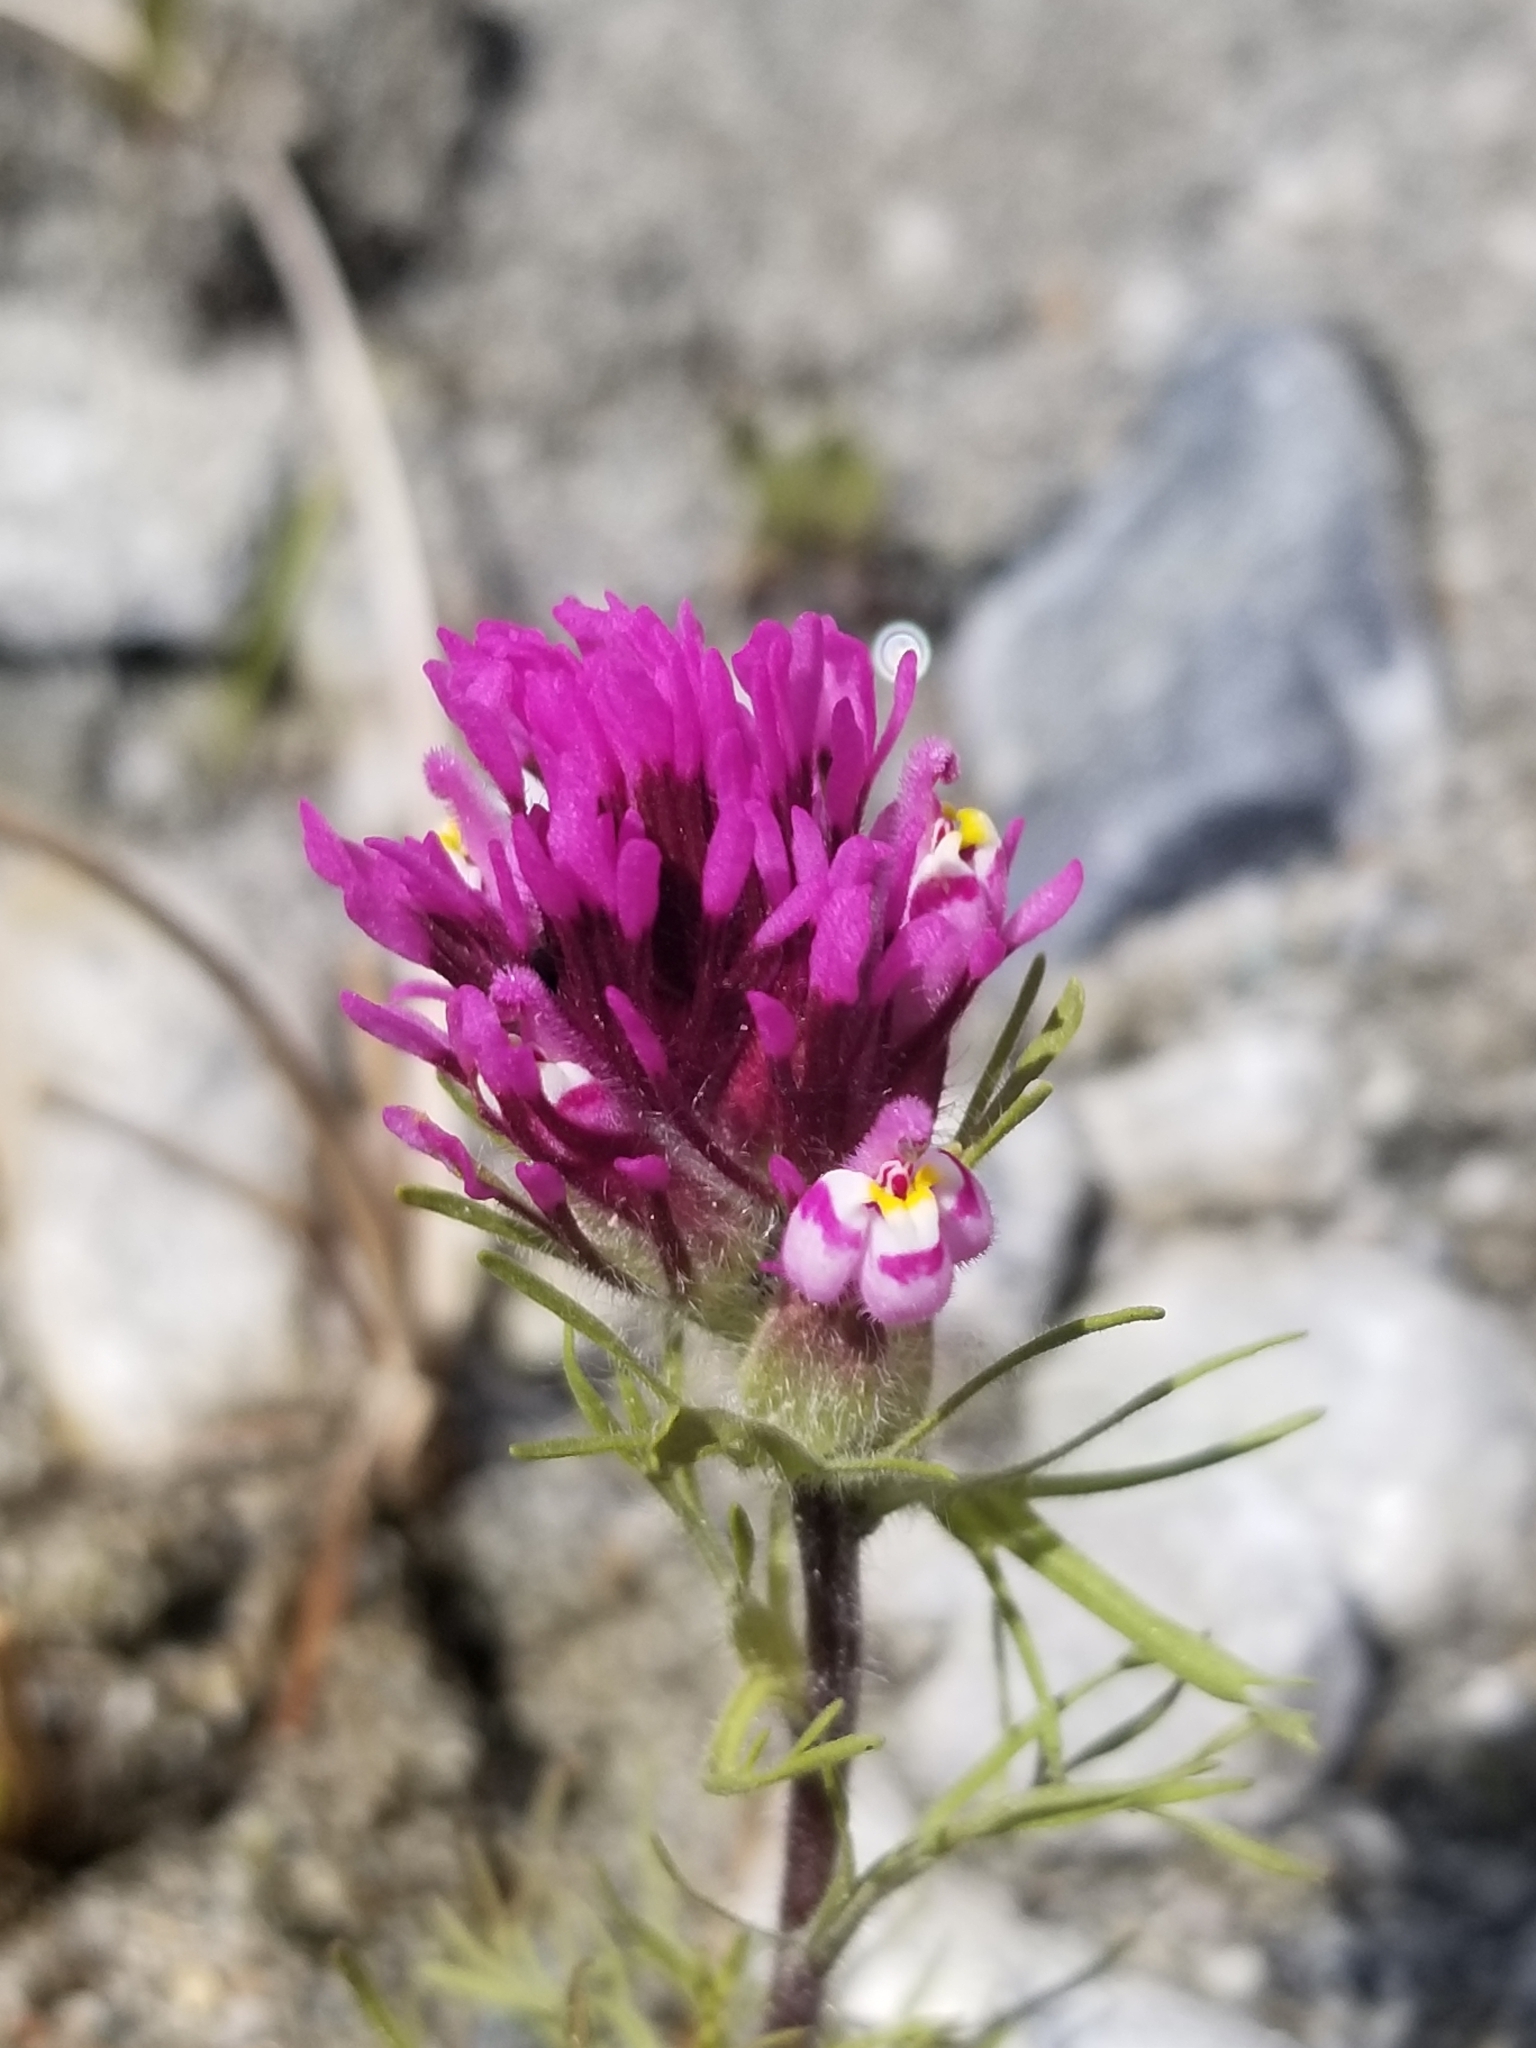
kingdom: Plantae
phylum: Tracheophyta
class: Magnoliopsida
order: Lamiales
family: Orobanchaceae
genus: Castilleja
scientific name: Castilleja exserta
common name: Purple owl-clover
